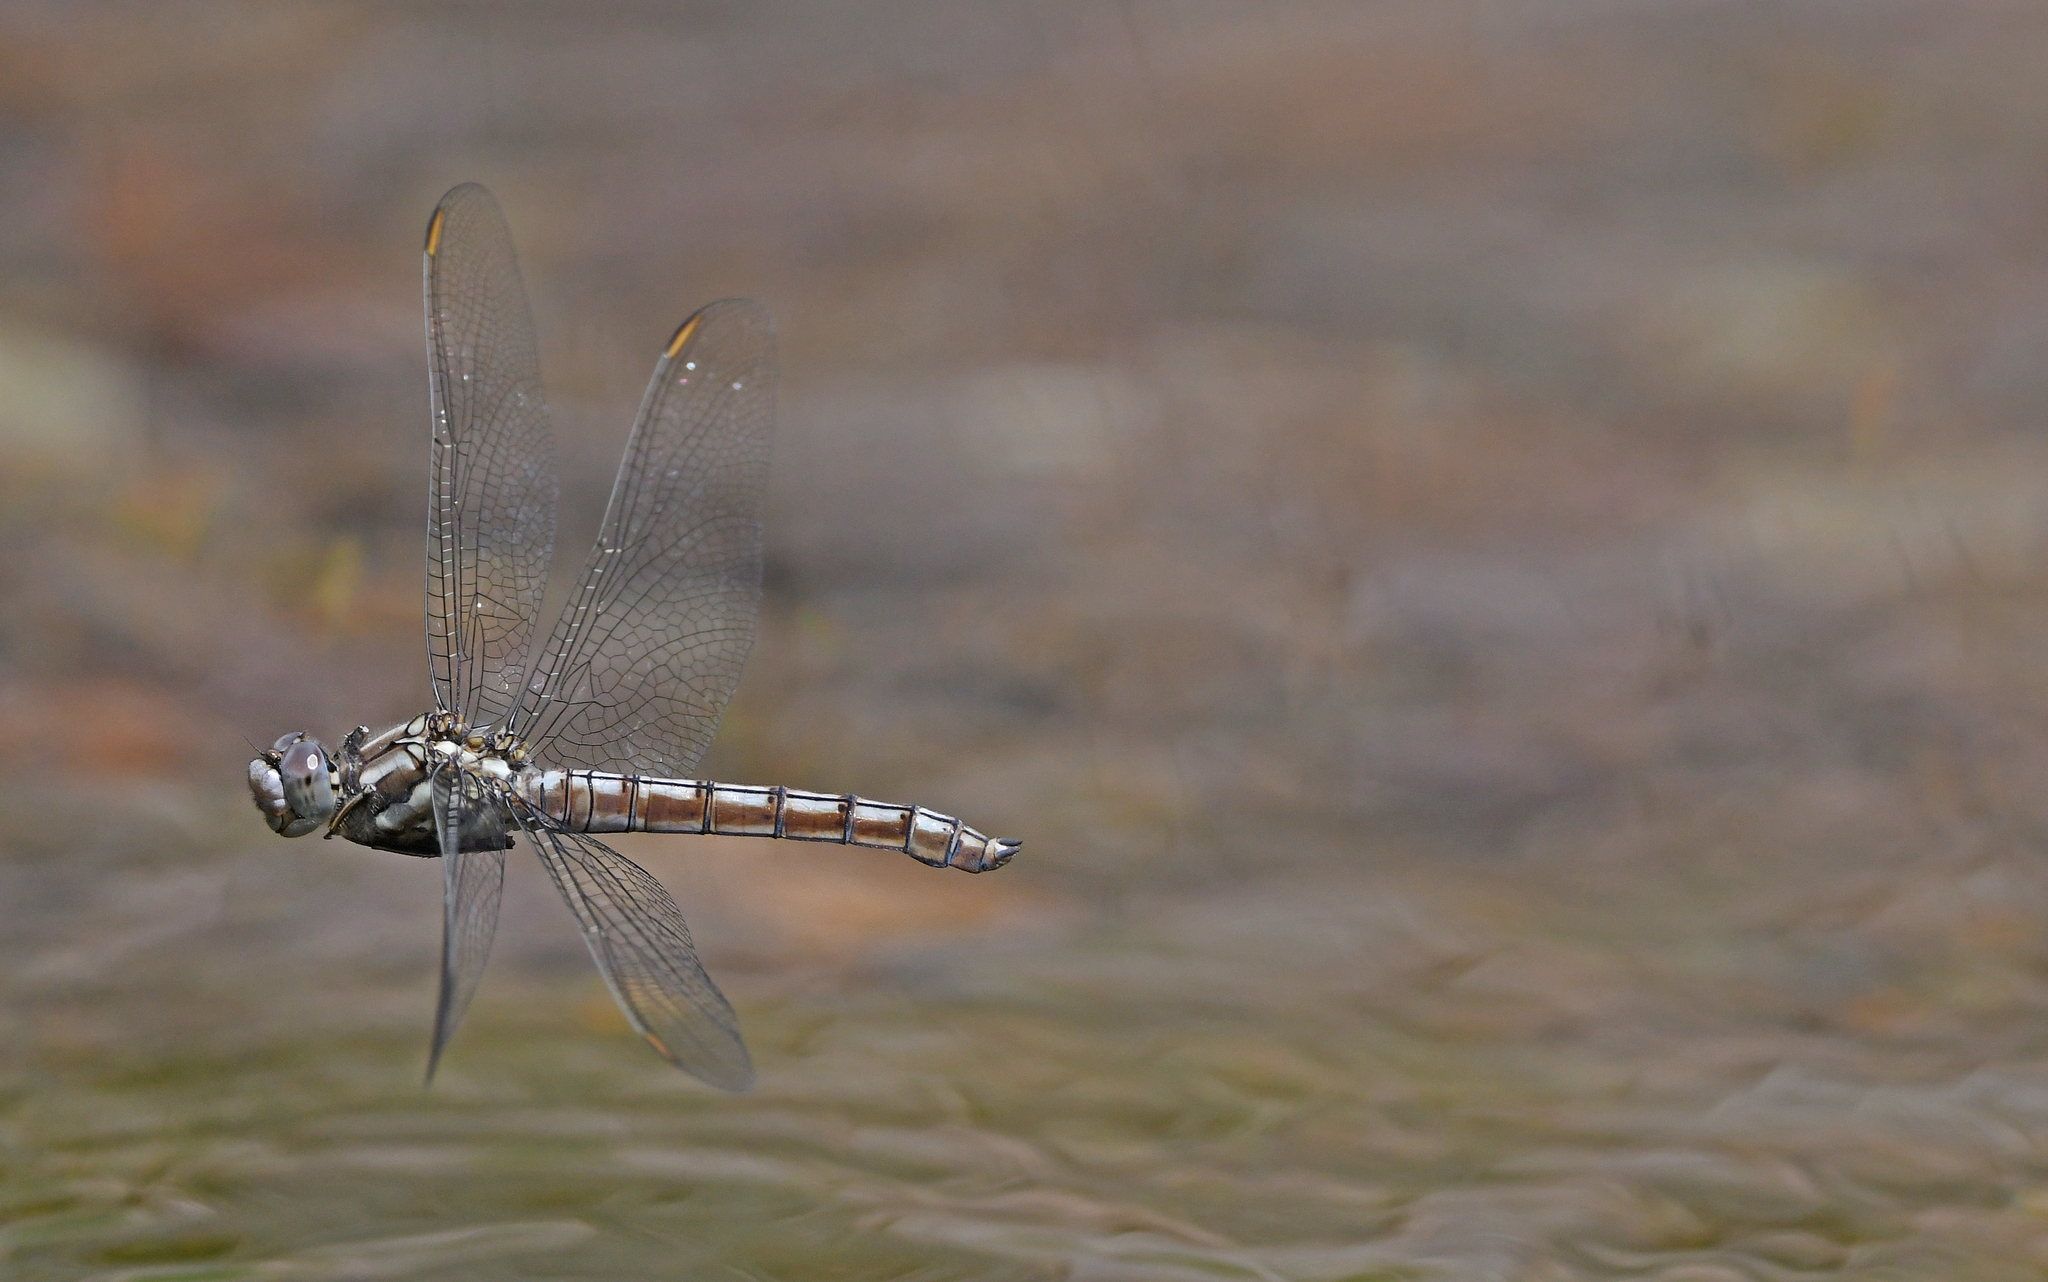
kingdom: Animalia
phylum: Arthropoda
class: Insecta
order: Odonata
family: Libellulidae
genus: Orthetrum
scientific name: Orthetrum brunneum
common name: Southern skimmer
